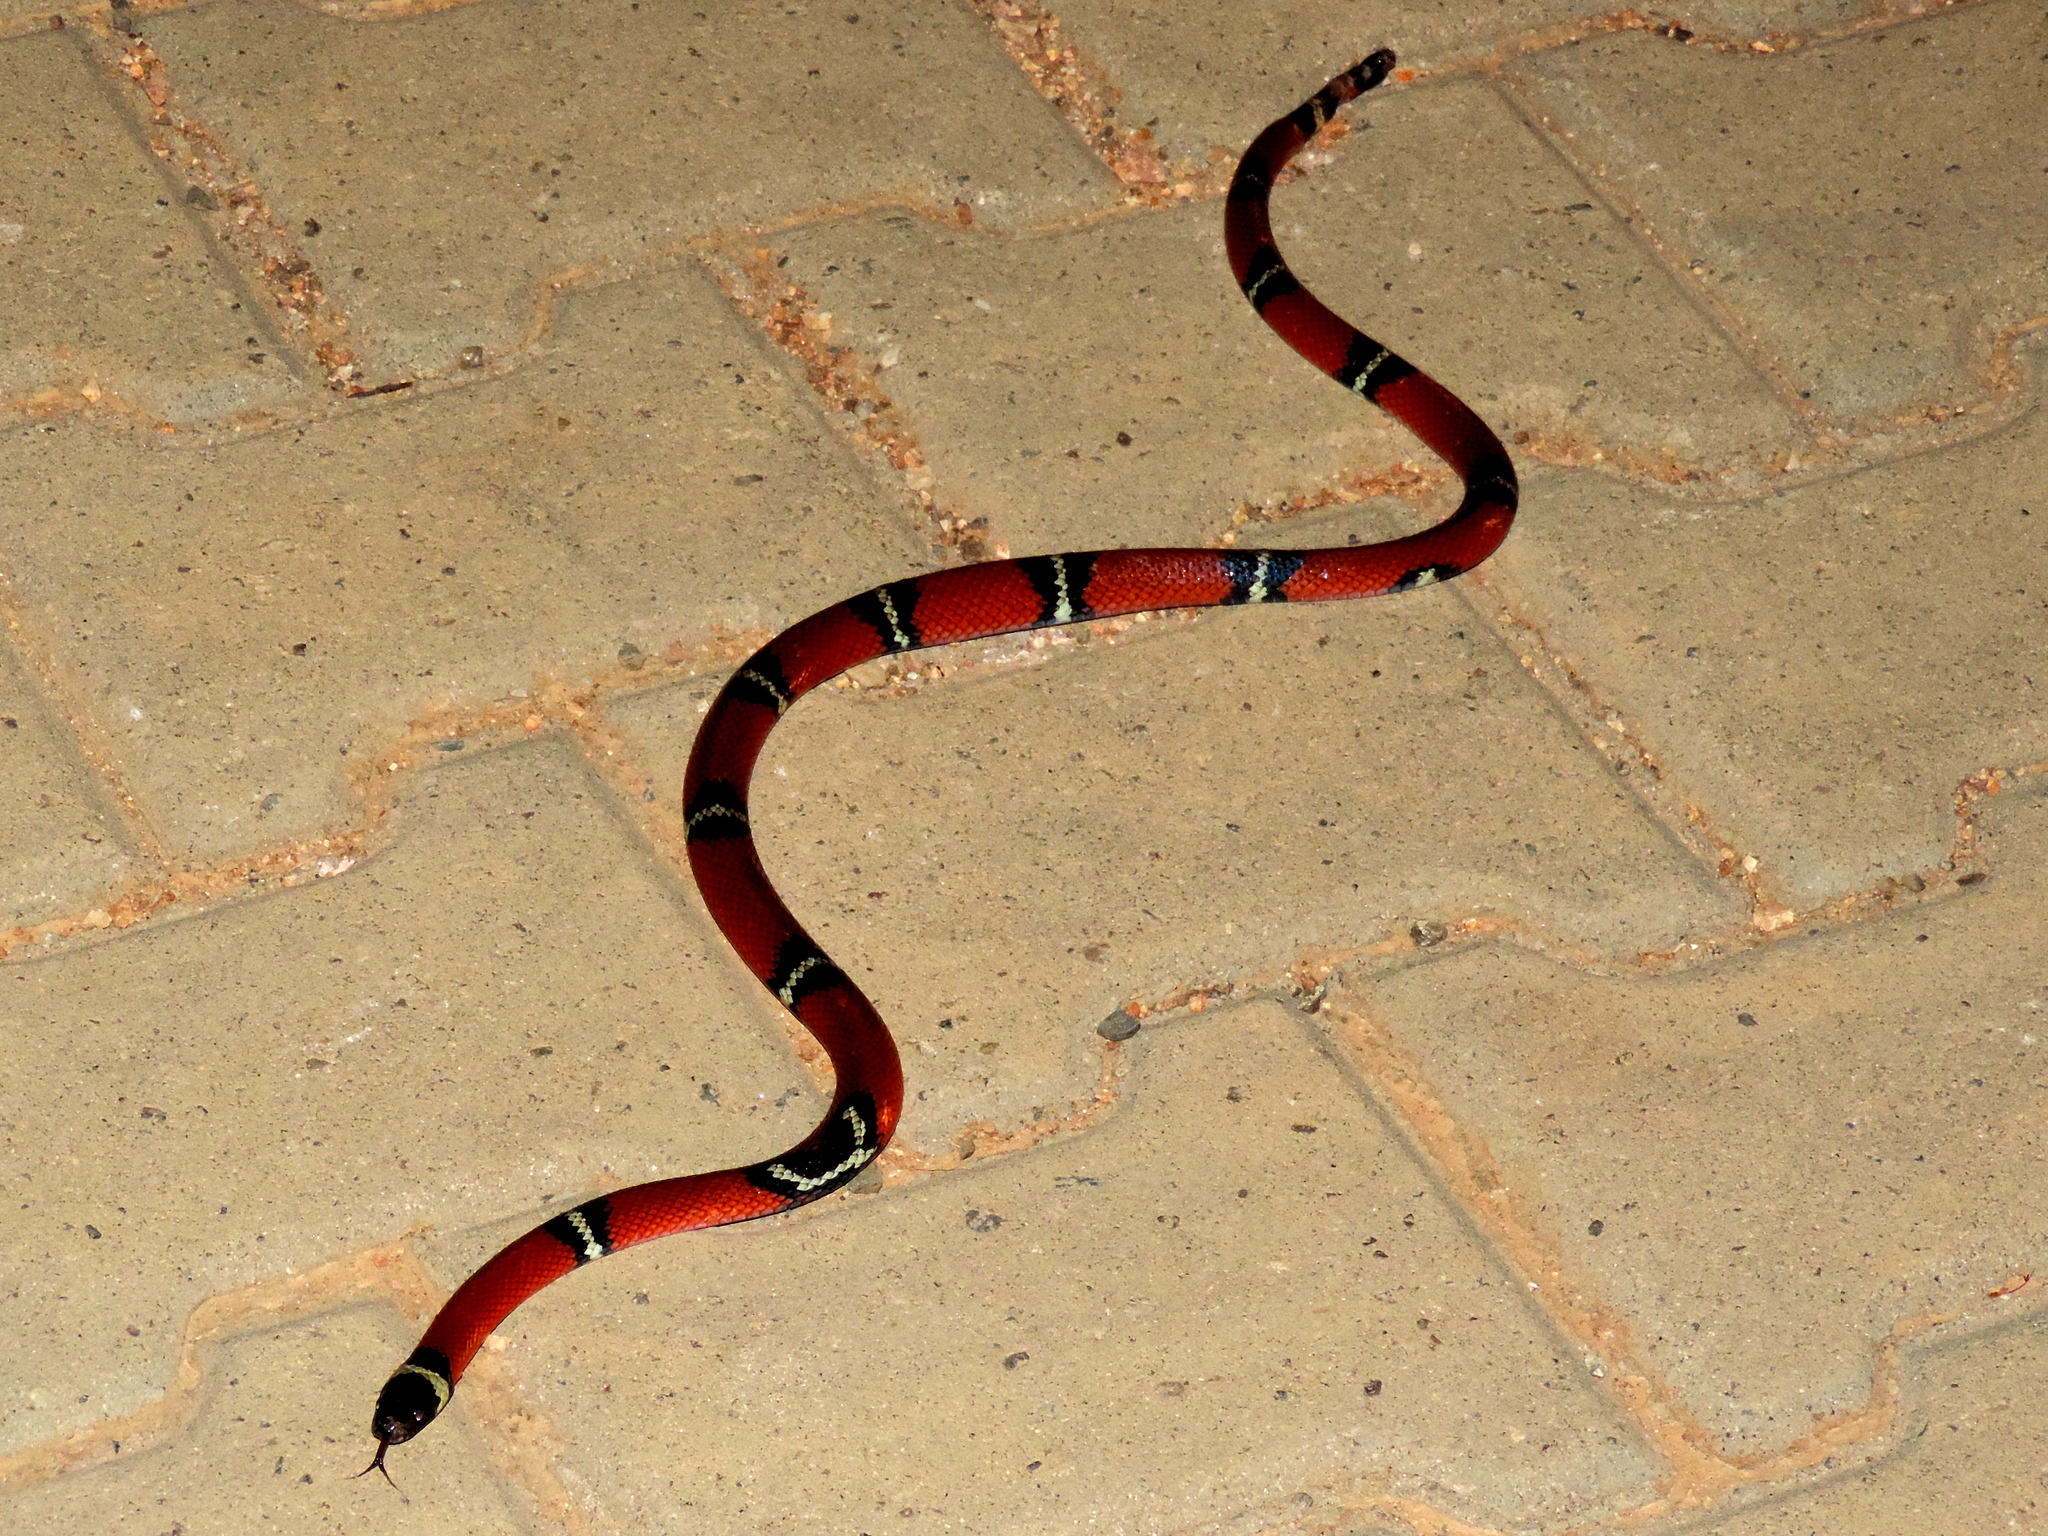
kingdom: Animalia
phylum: Chordata
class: Squamata
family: Colubridae
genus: Lampropeltis
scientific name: Lampropeltis polyzona
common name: Atlantic central american milksnake
